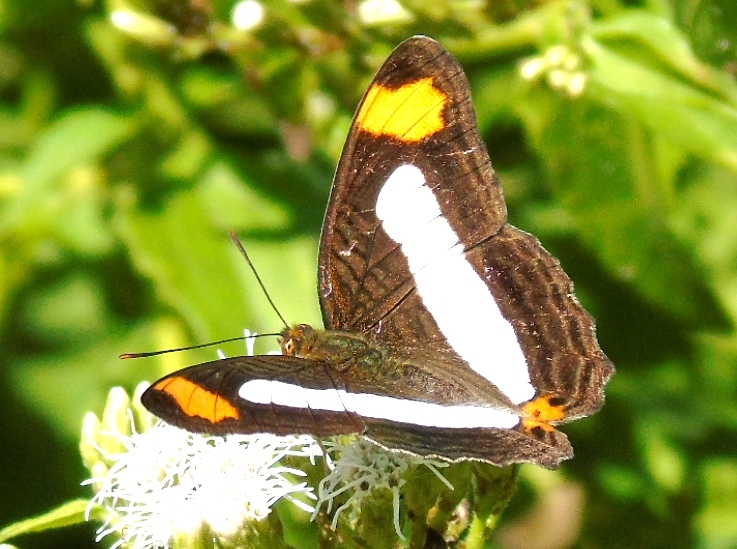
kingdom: Animalia
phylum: Arthropoda
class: Insecta
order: Lepidoptera
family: Nymphalidae
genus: Limenitis
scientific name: Limenitis iphiclus
